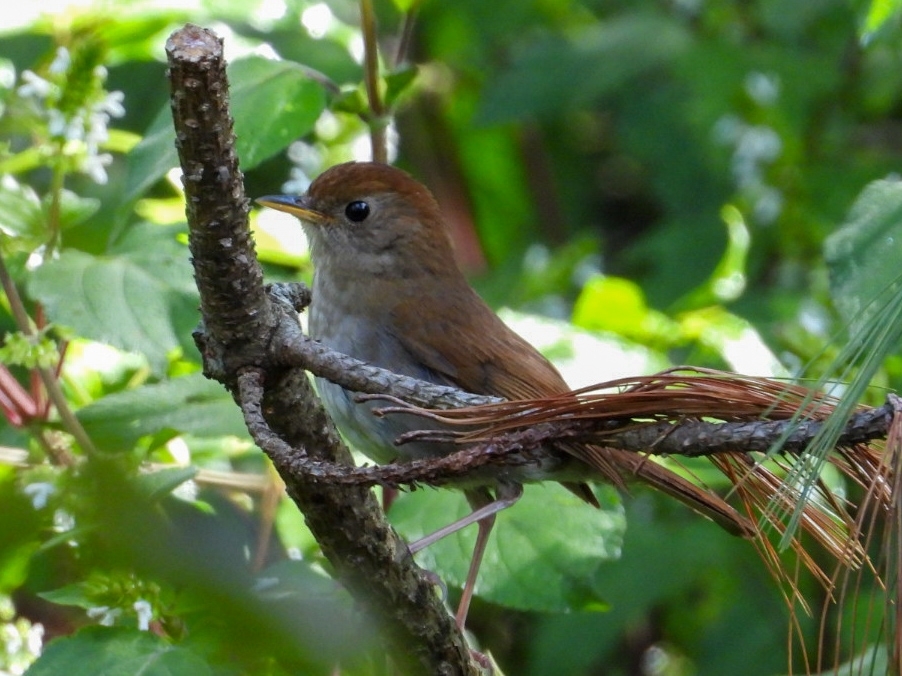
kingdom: Animalia
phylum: Chordata
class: Aves
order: Passeriformes
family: Turdidae
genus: Catharus
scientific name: Catharus frantzii
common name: Ruddy-capped nightingale-thrush
